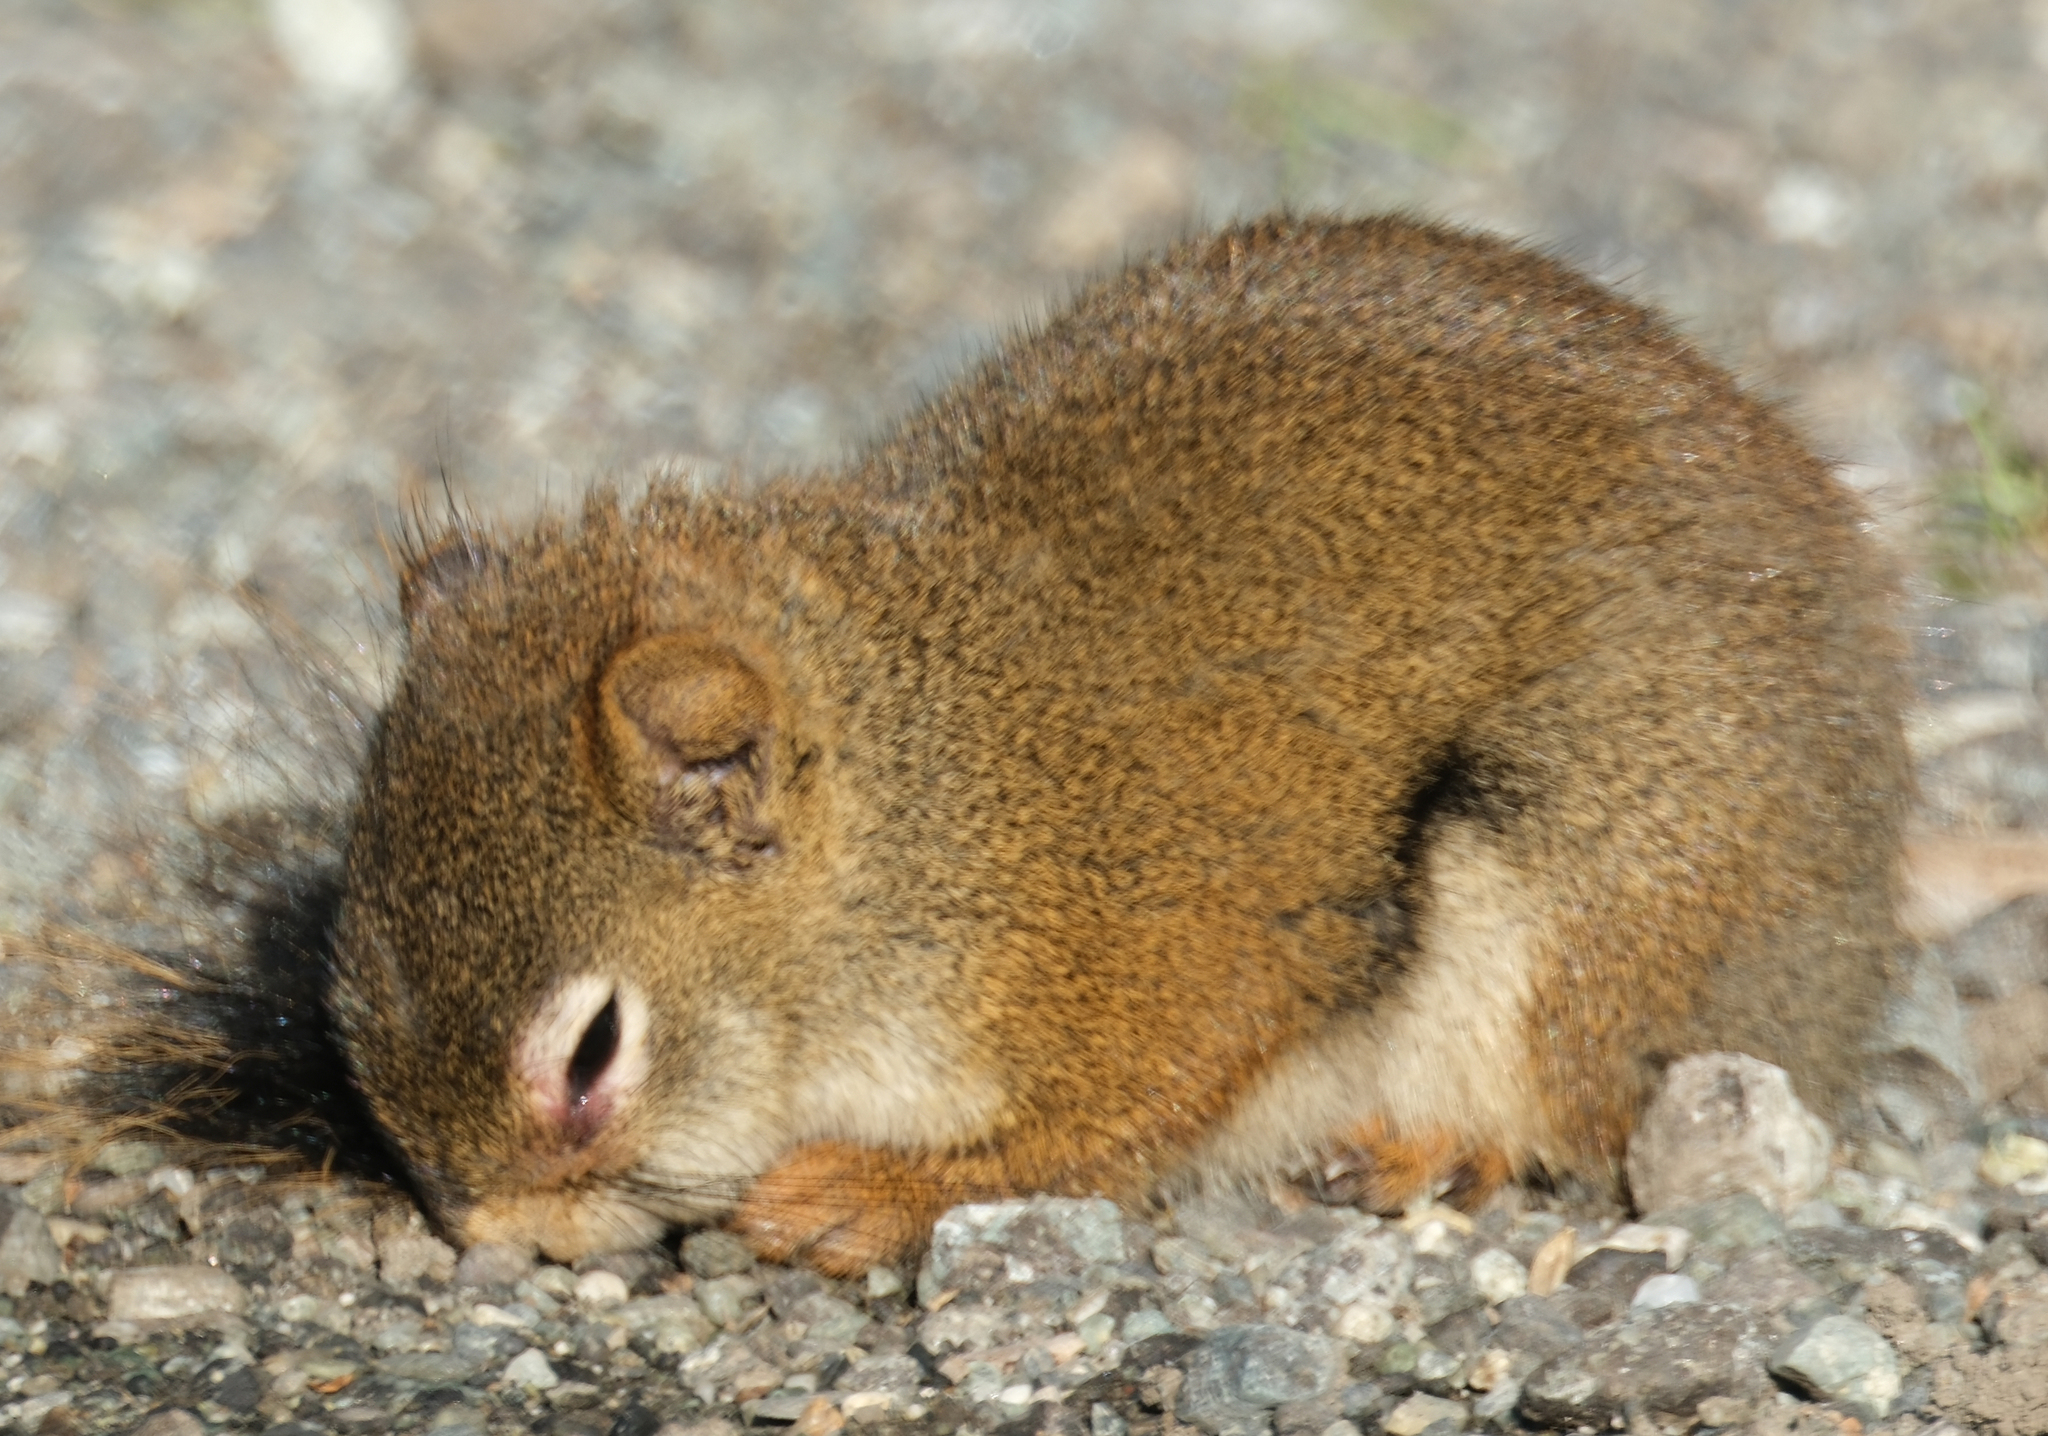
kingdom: Animalia
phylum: Chordata
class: Mammalia
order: Rodentia
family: Sciuridae
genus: Tamiasciurus
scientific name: Tamiasciurus hudsonicus
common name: Red squirrel
